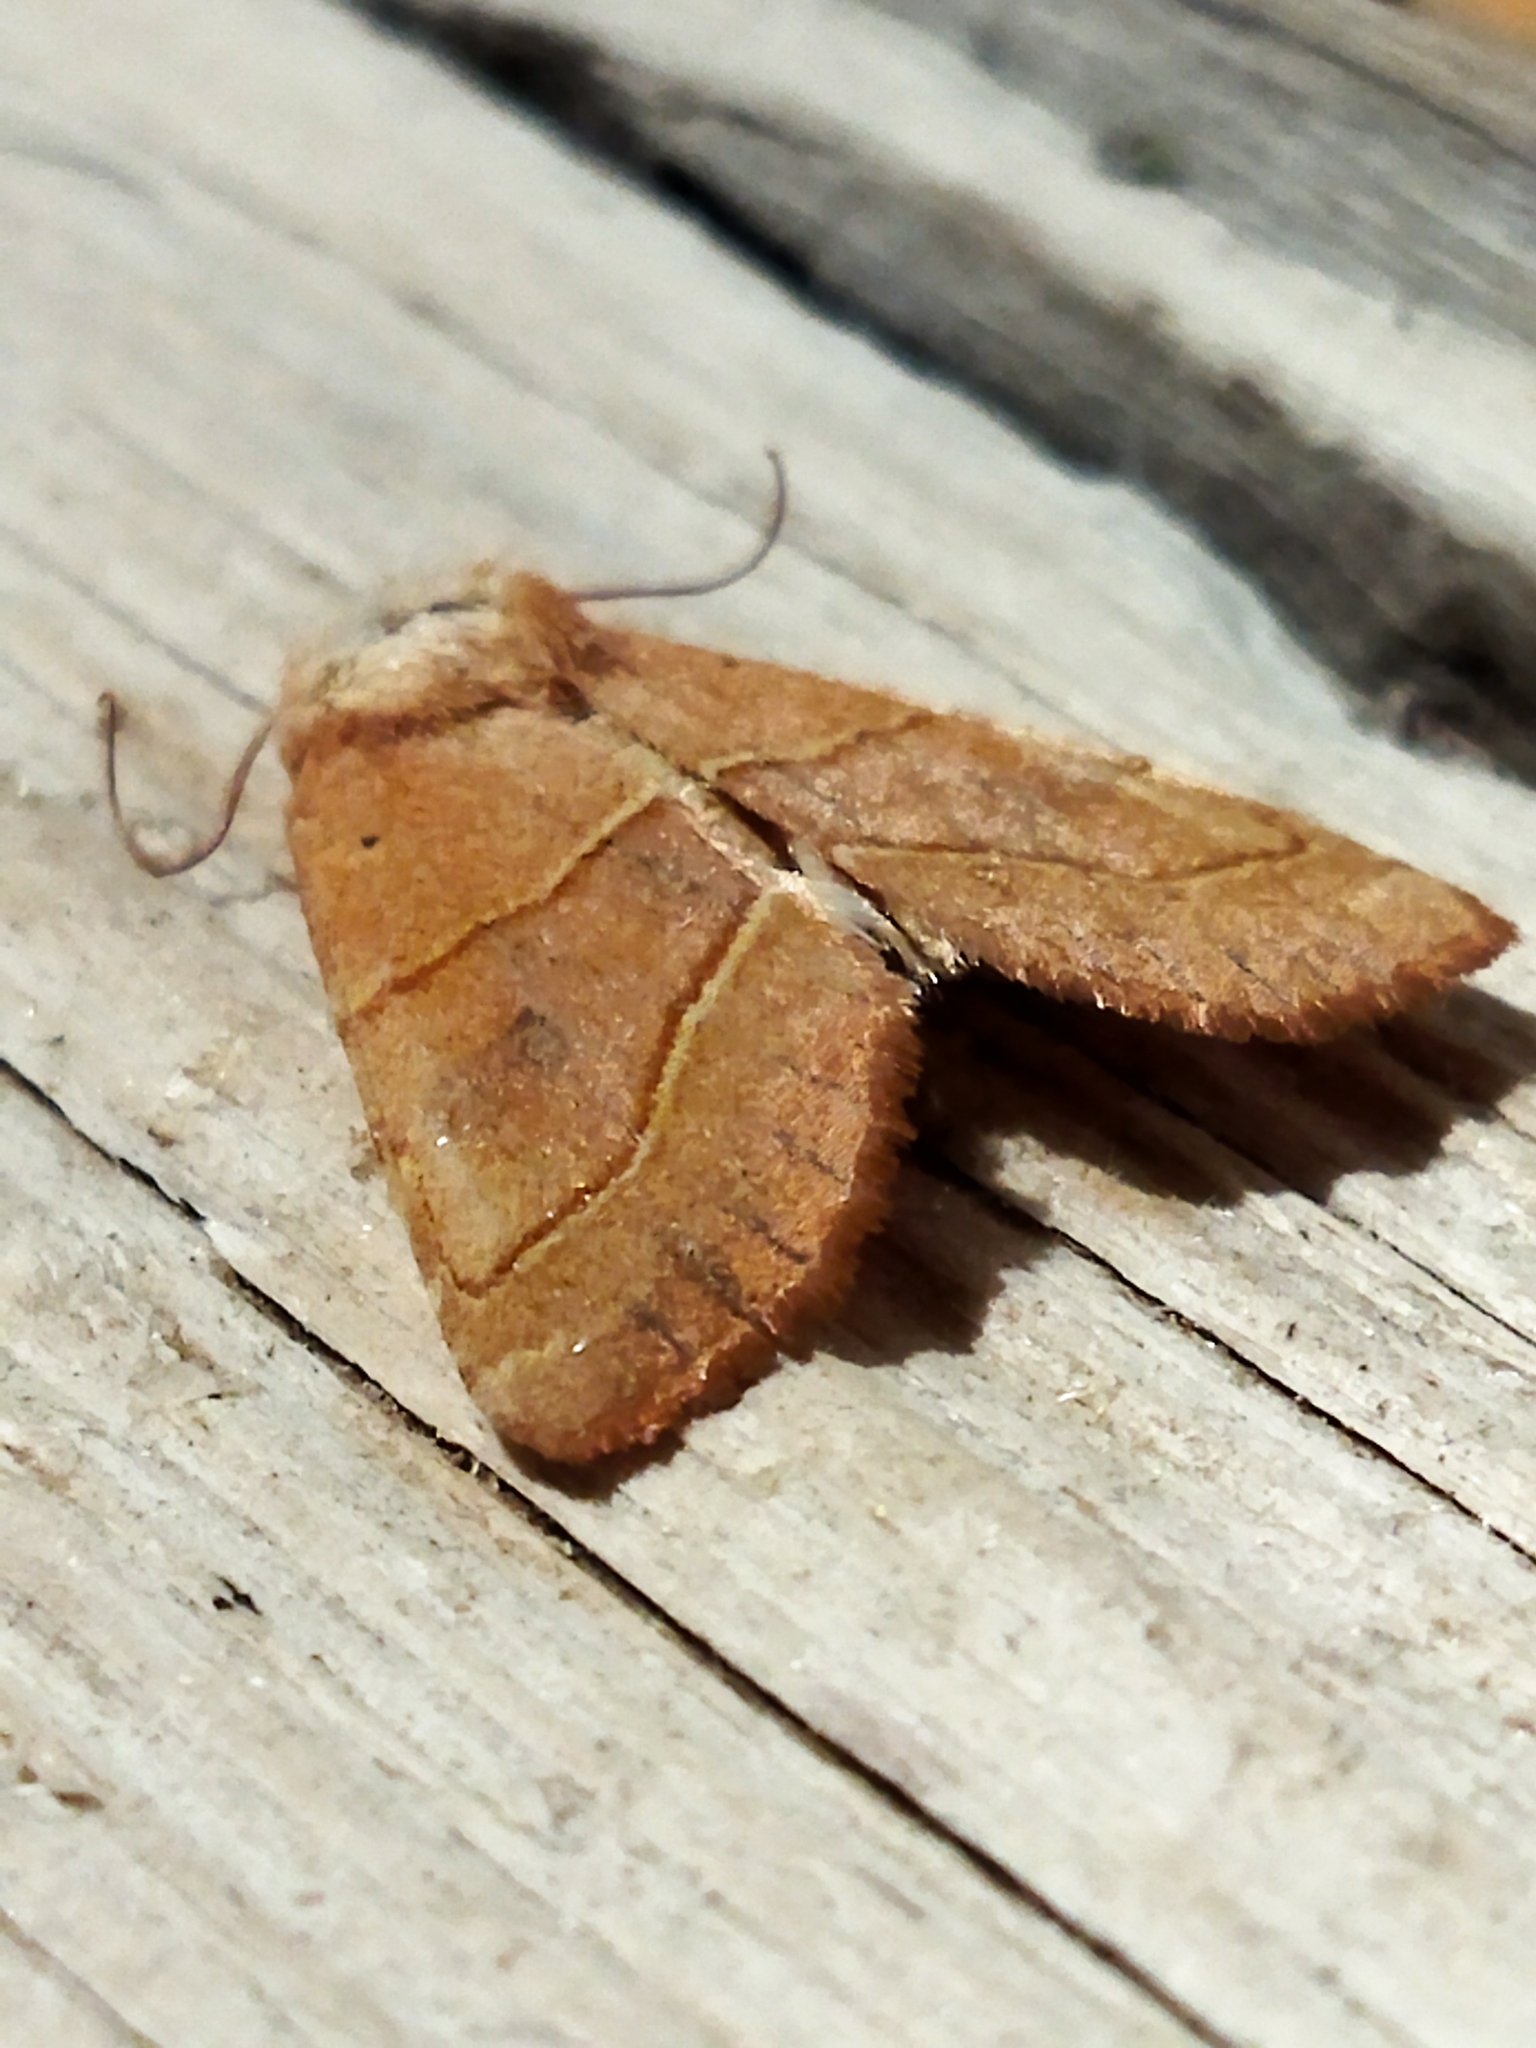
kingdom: Animalia
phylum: Arthropoda
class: Insecta
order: Lepidoptera
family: Noctuidae
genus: Atethmia
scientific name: Atethmia centrago
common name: Centre-barred sallow
